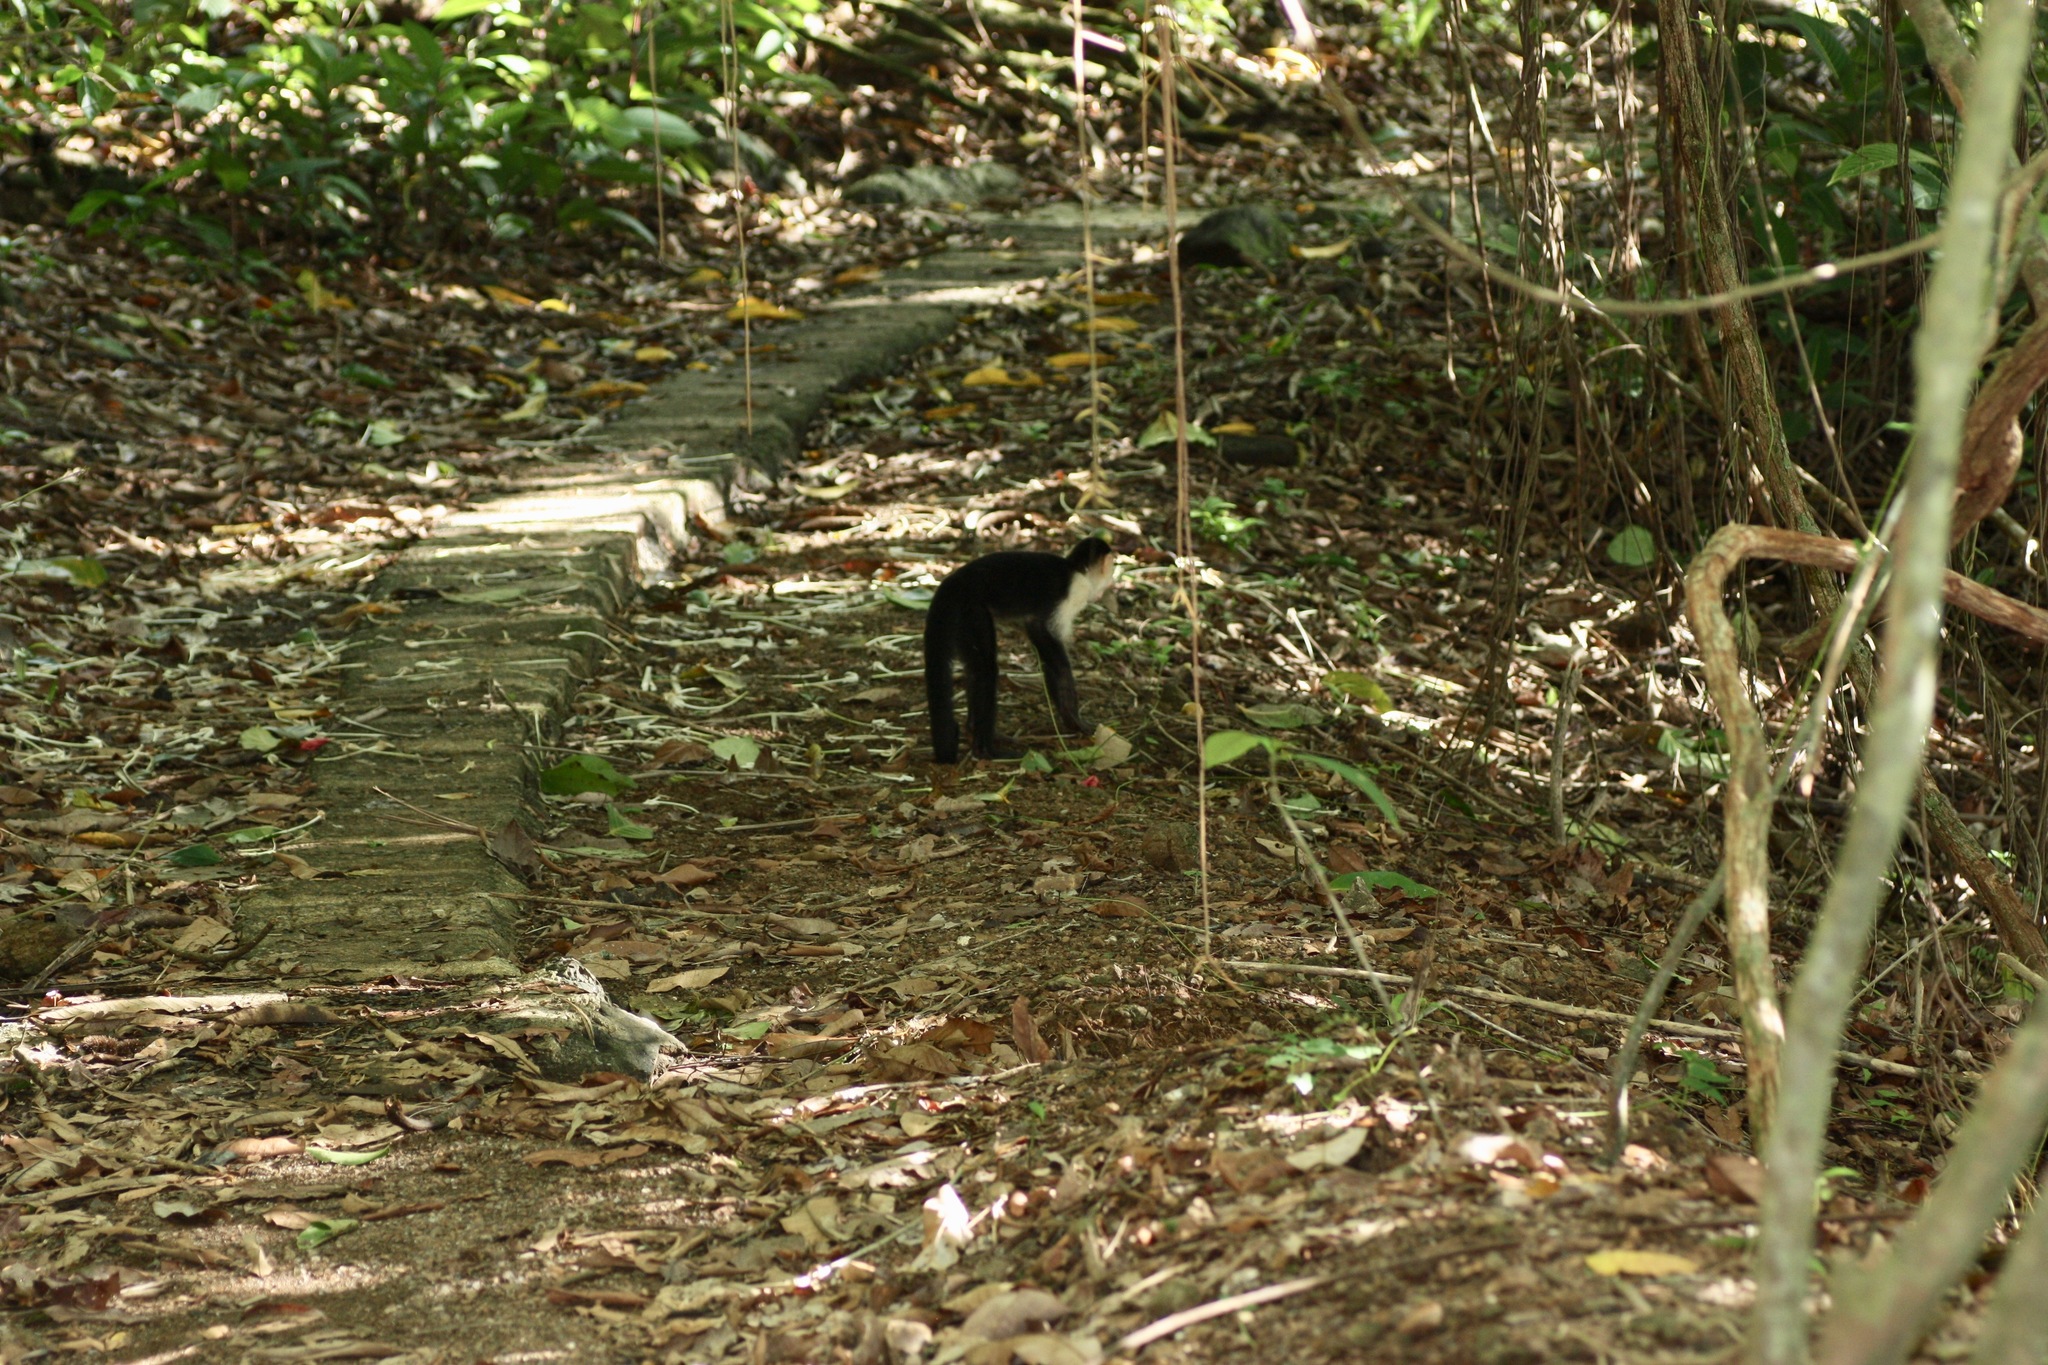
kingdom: Animalia
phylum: Chordata
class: Mammalia
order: Primates
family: Cebidae
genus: Cebus
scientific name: Cebus imitator
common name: Panamanian white-faced capuchin
